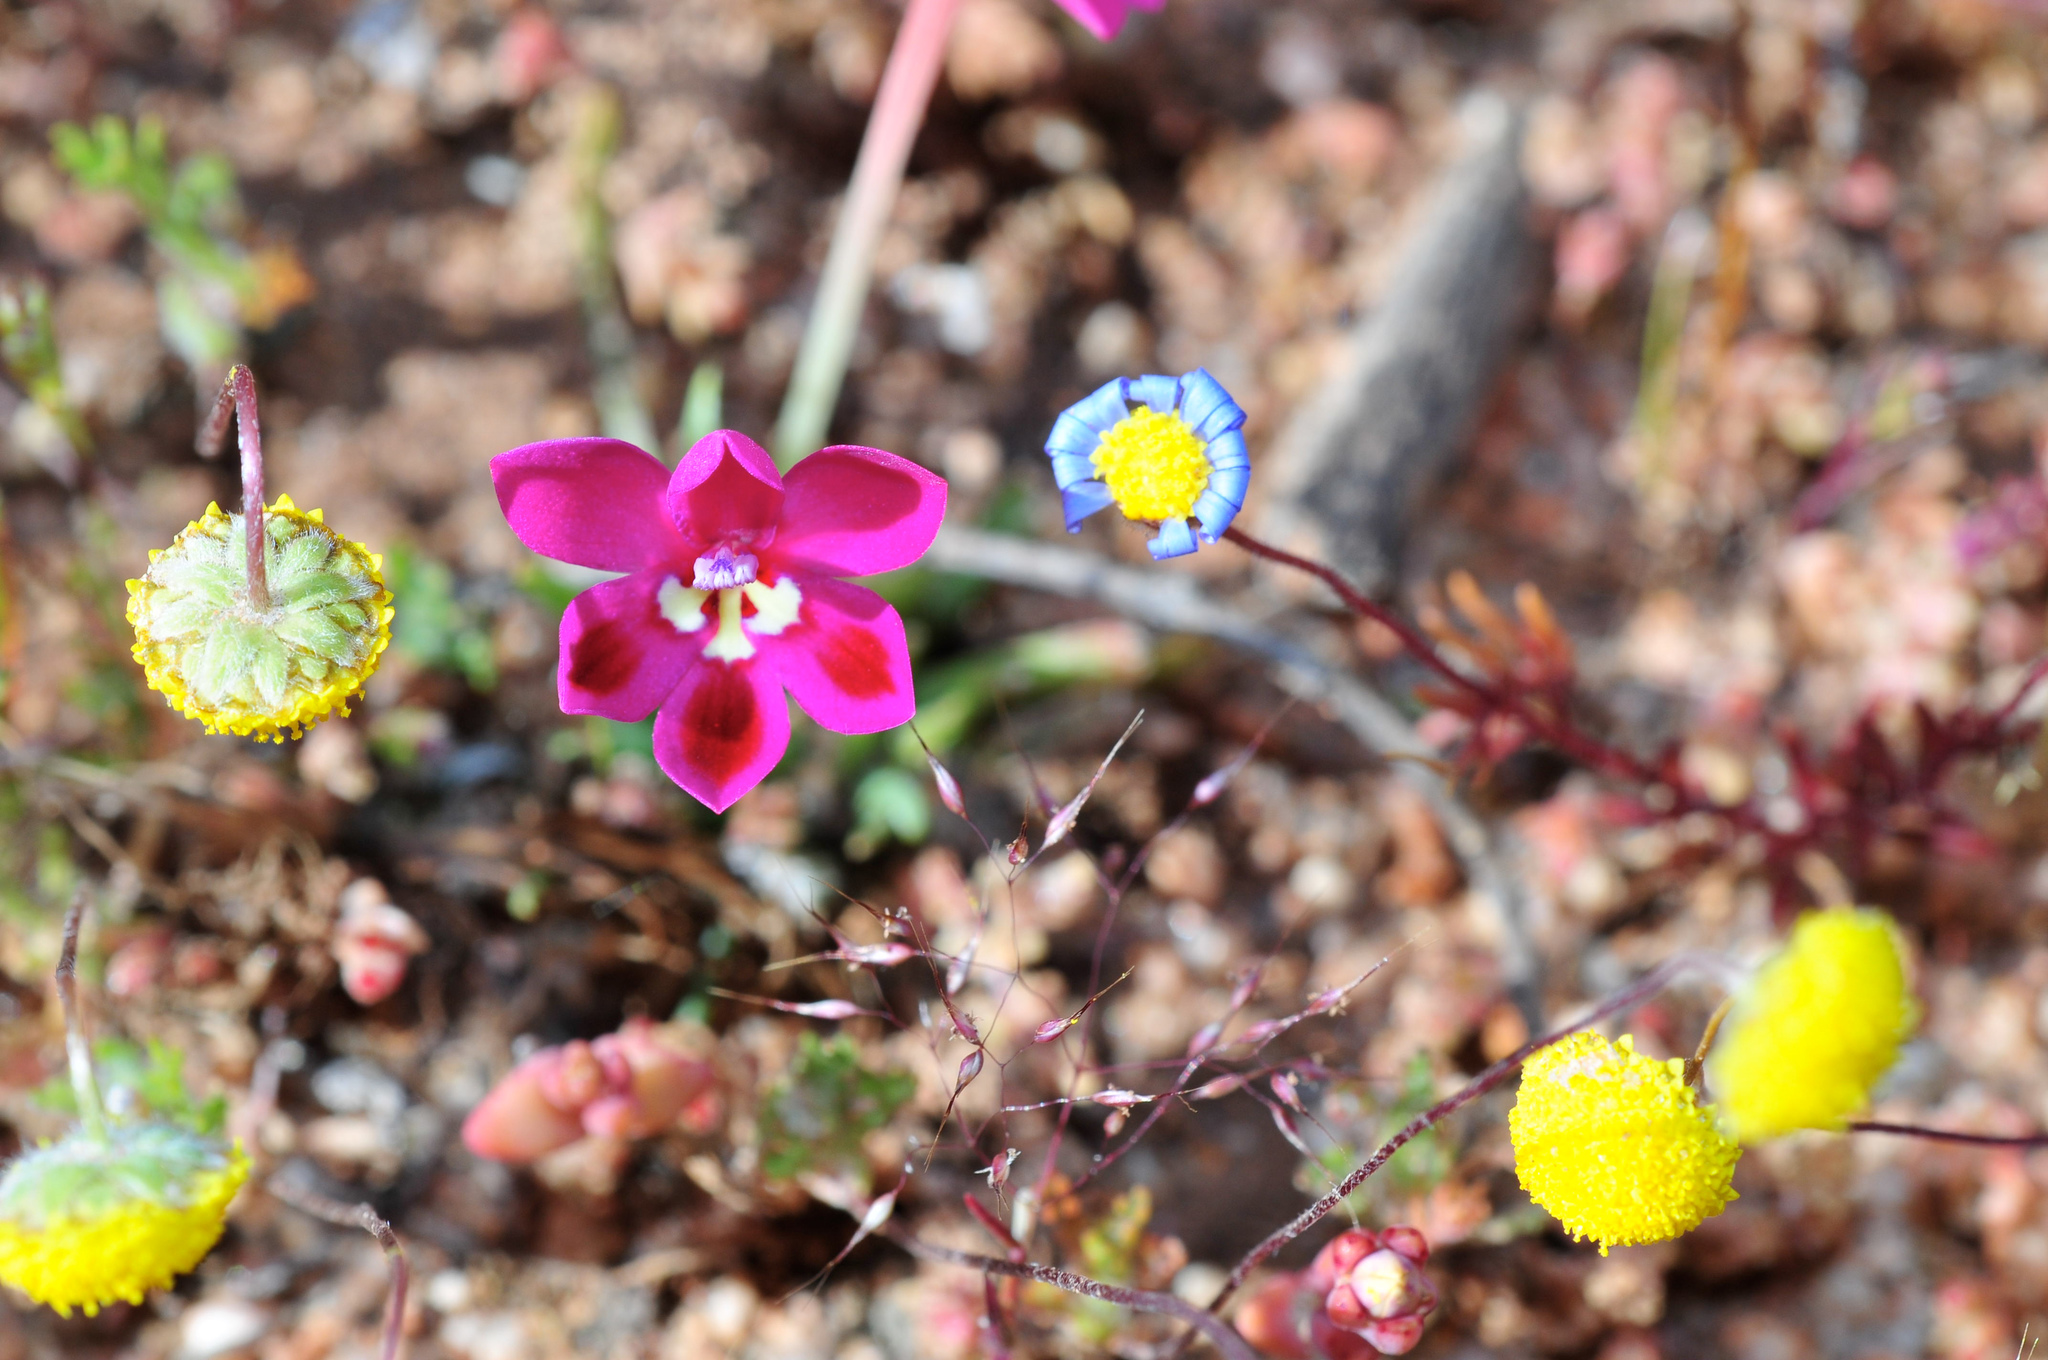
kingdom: Plantae
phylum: Tracheophyta
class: Liliopsida
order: Asparagales
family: Iridaceae
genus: Lapeirousia
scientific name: Lapeirousia silenoides
